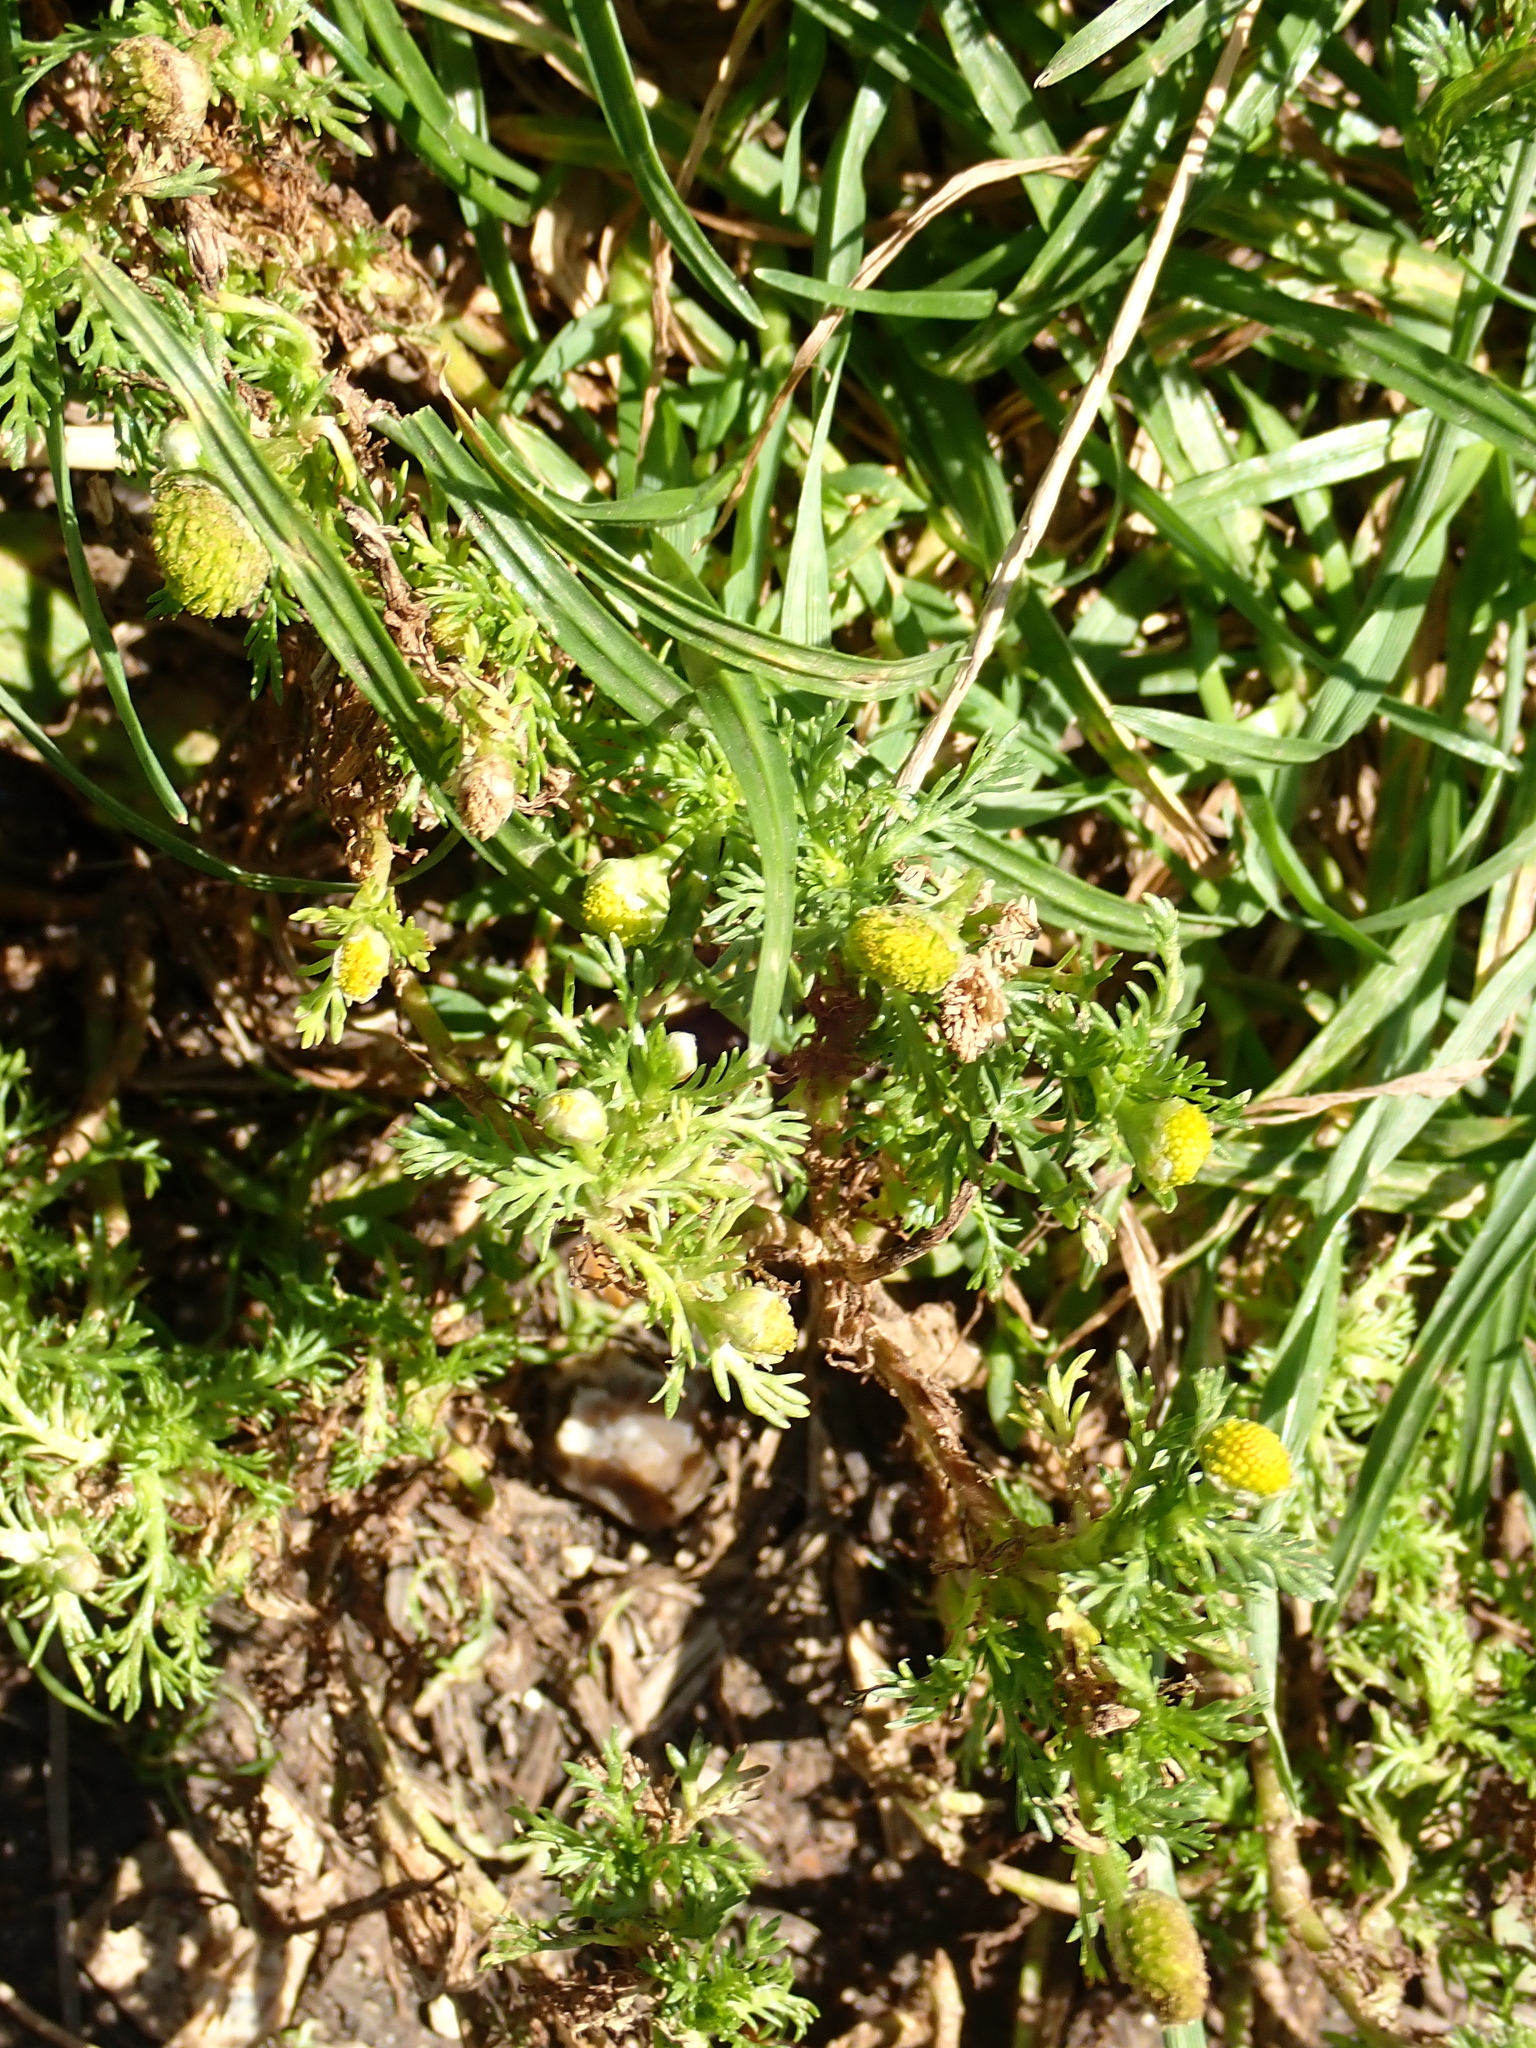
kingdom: Plantae
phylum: Tracheophyta
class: Magnoliopsida
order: Asterales
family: Asteraceae
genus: Matricaria
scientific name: Matricaria discoidea
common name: Disc mayweed
